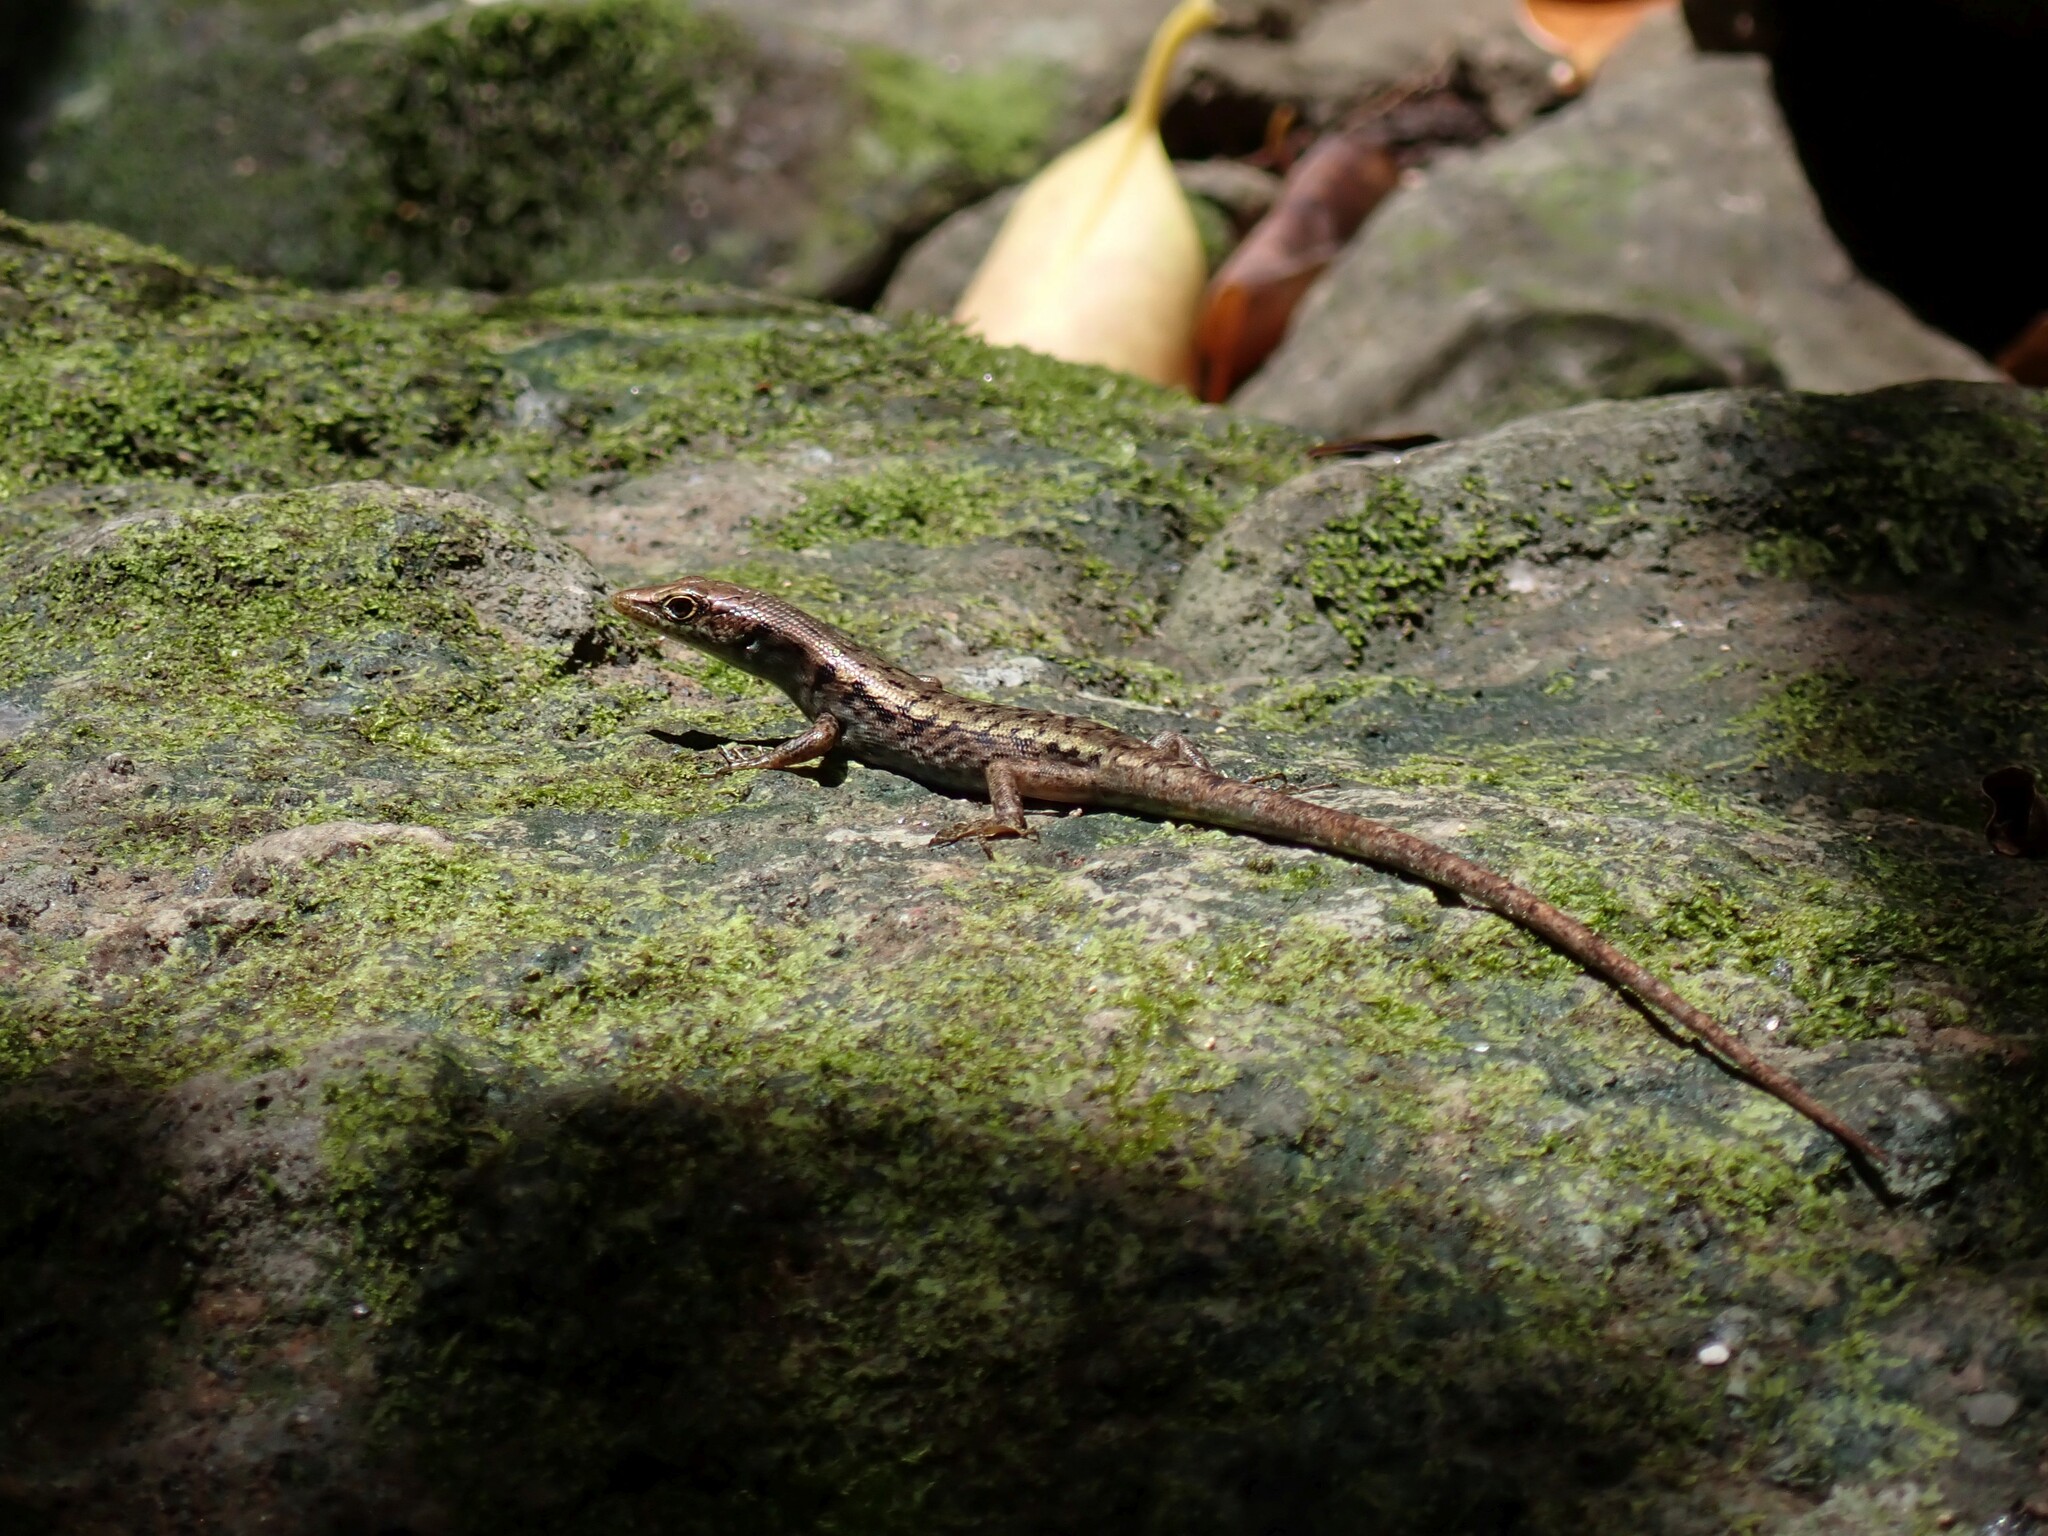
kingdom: Animalia
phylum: Chordata
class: Squamata
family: Scincidae
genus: Emoia
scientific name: Emoia aneityumensis
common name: Medway's emo skink
